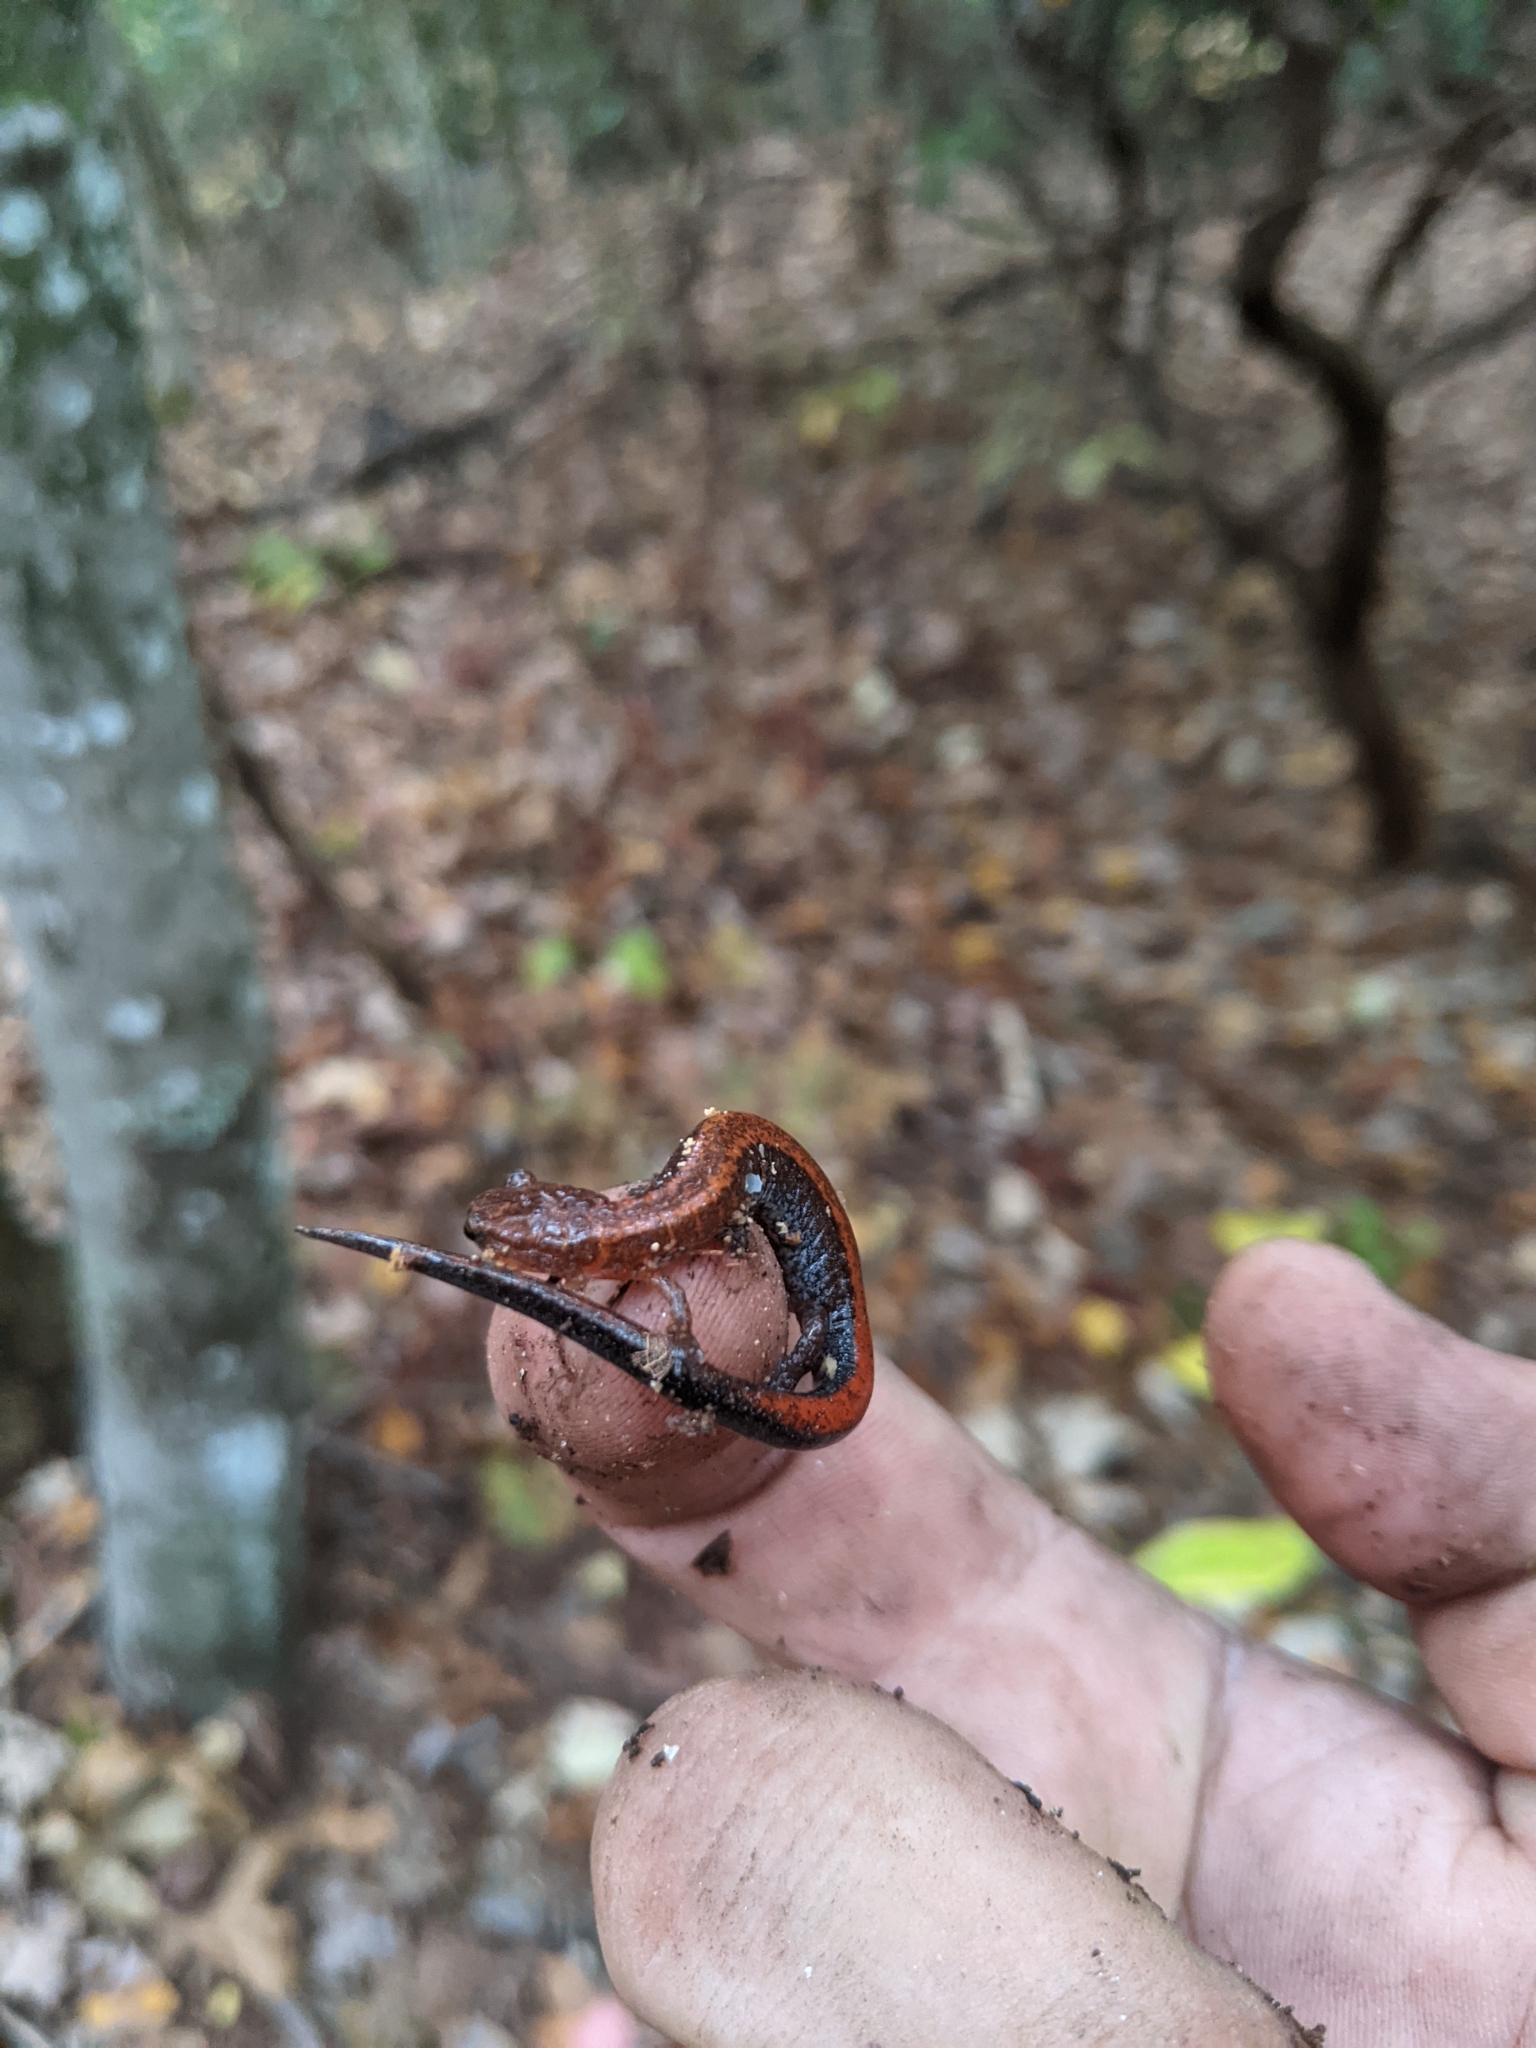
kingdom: Animalia
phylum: Chordata
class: Amphibia
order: Caudata
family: Plethodontidae
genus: Plethodon
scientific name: Plethodon serratus
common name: Southern red-backed salamander
